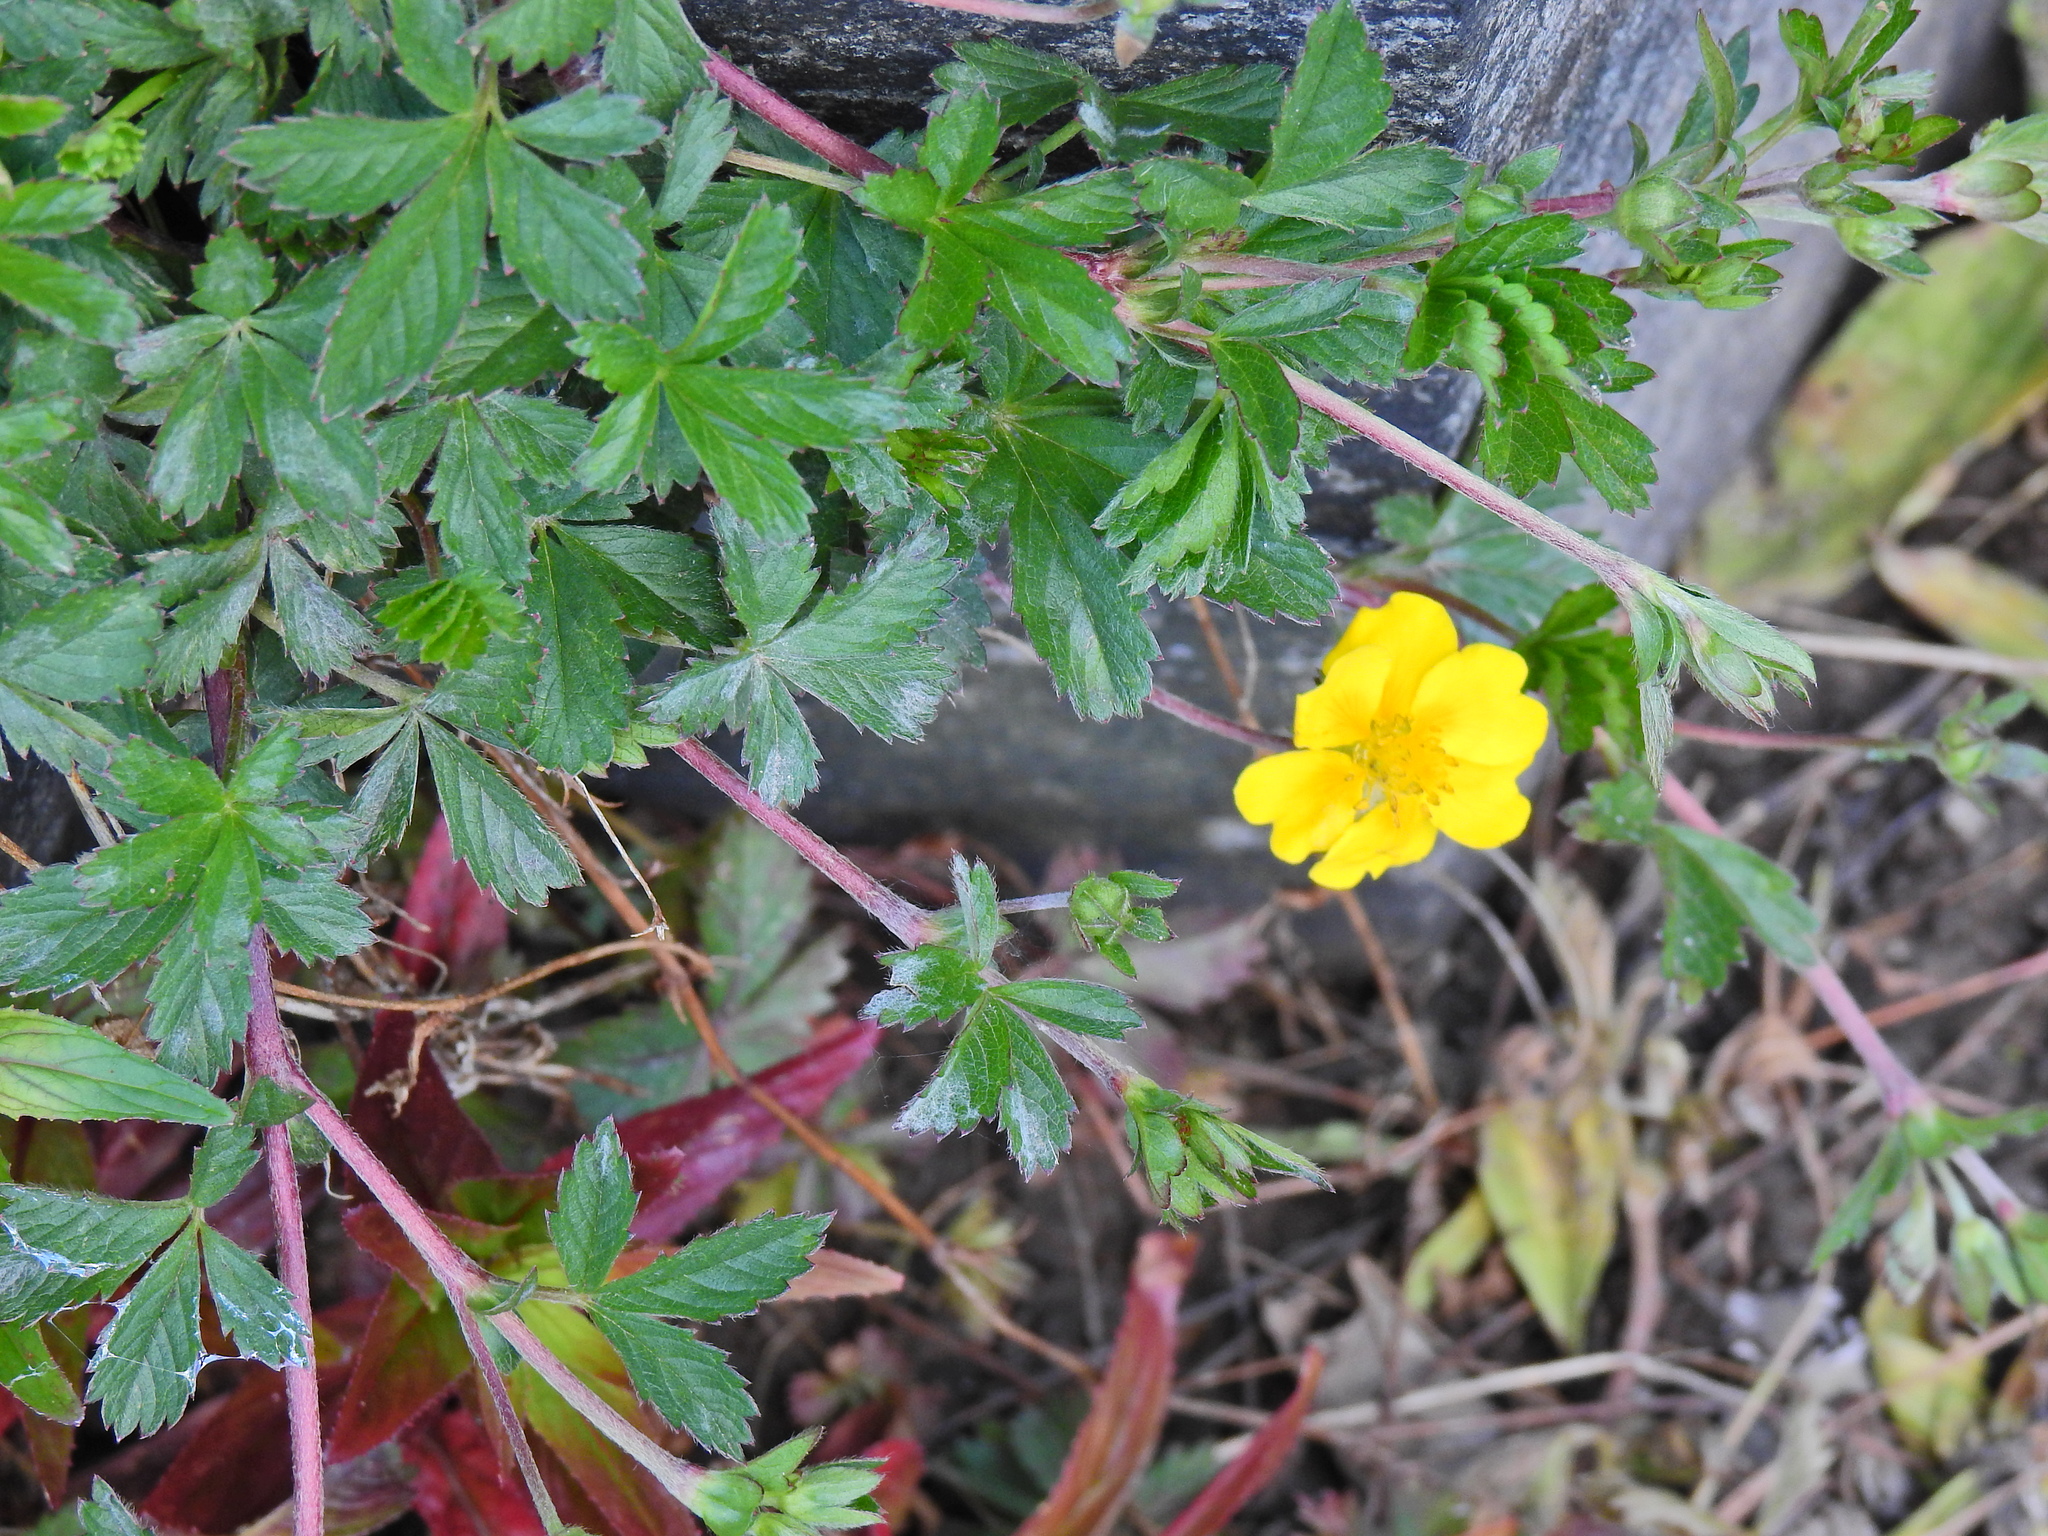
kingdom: Plantae
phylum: Tracheophyta
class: Magnoliopsida
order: Rosales
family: Rosaceae
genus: Potentilla
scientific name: Potentilla reptans
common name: Creeping cinquefoil
